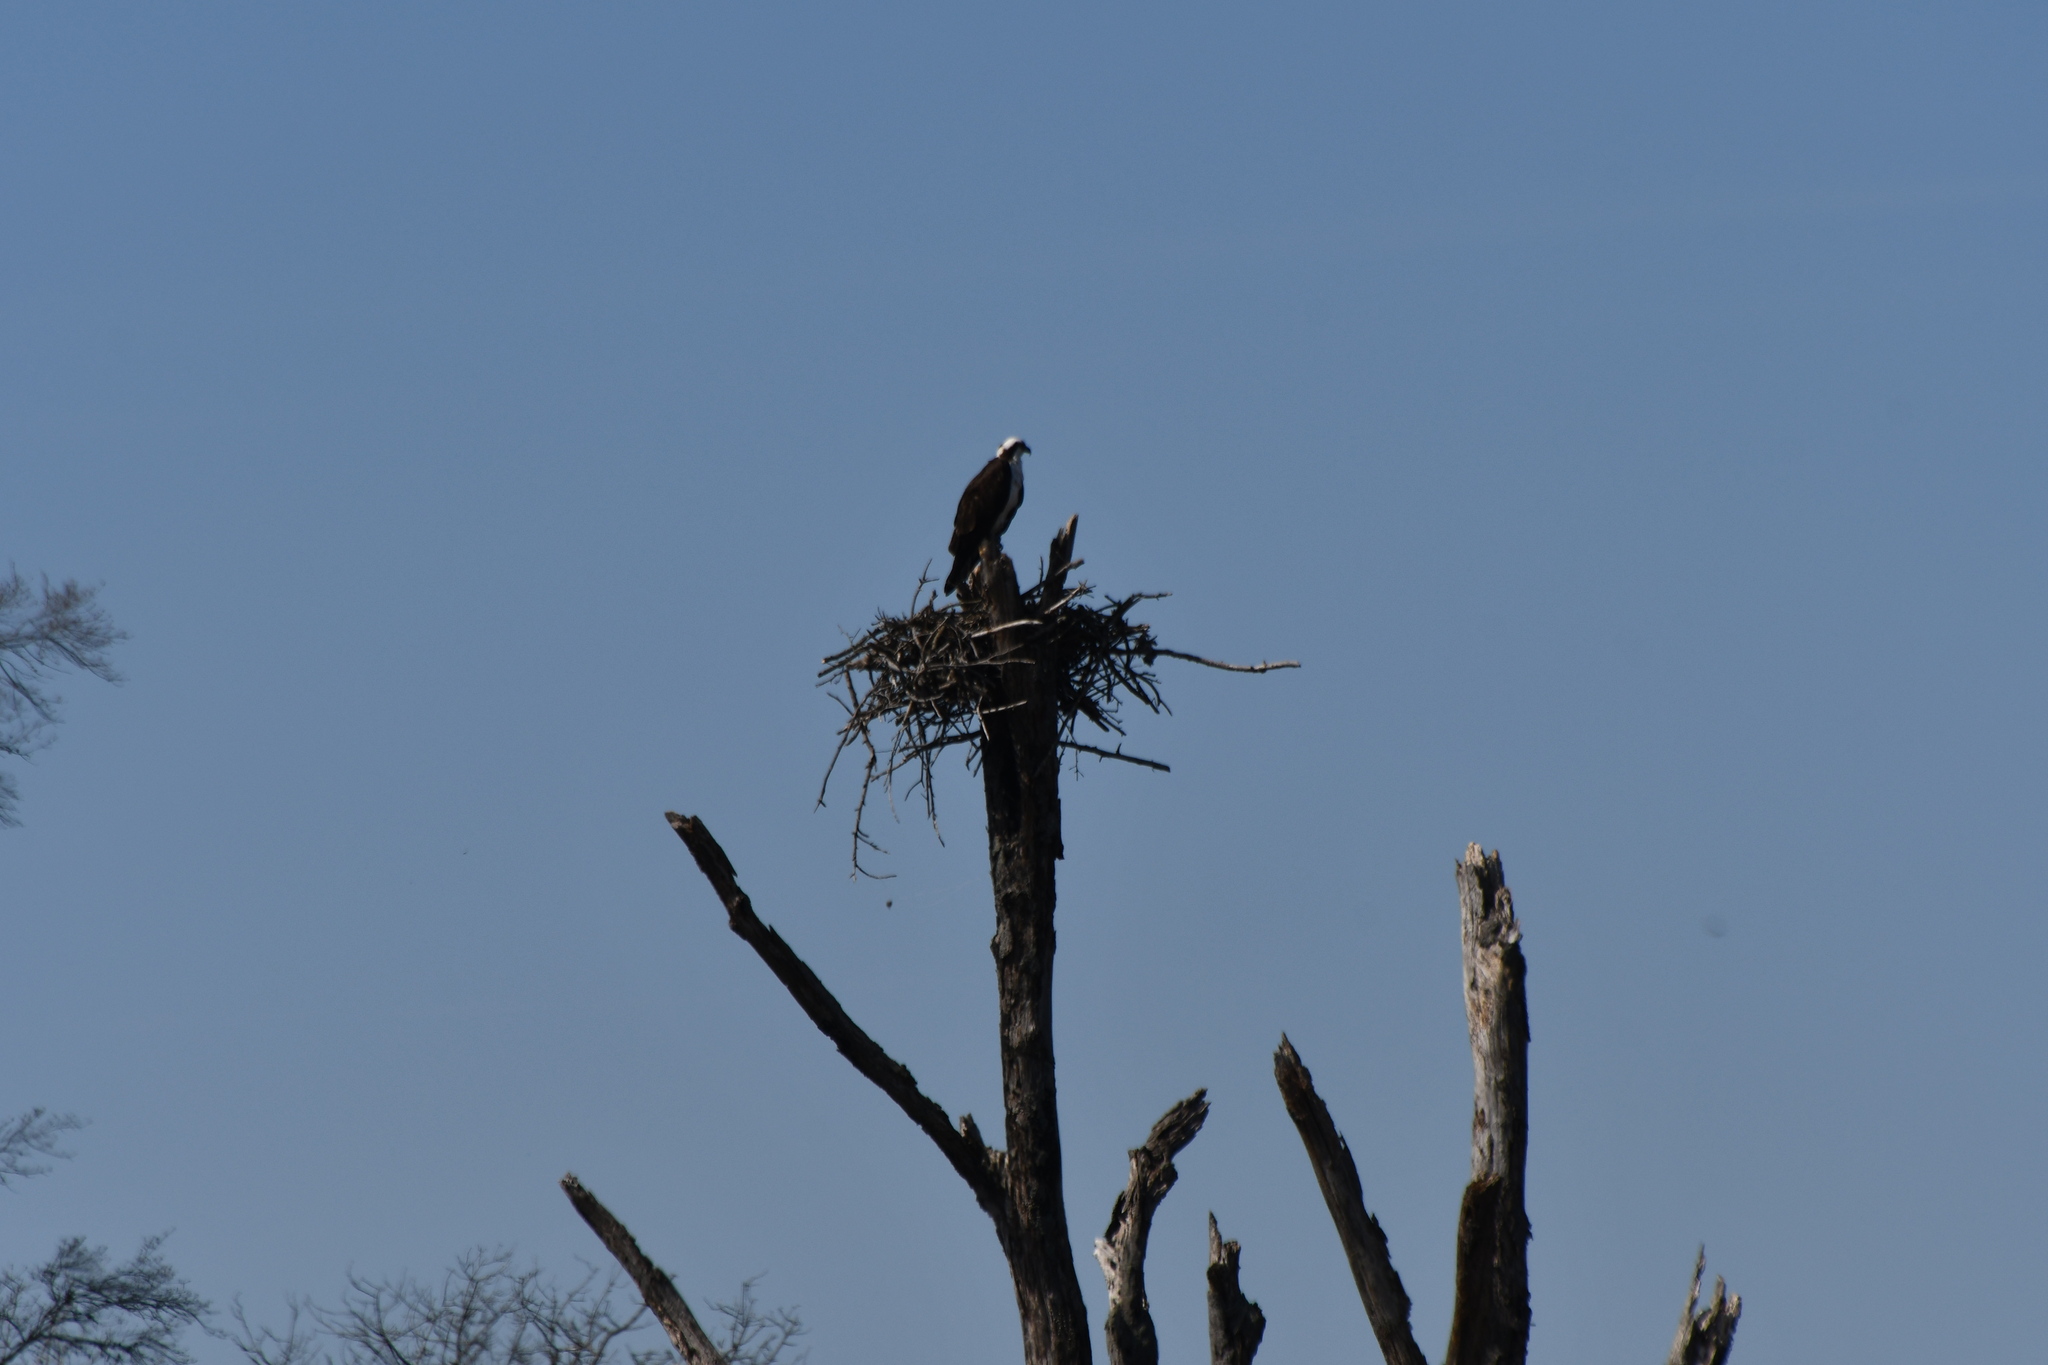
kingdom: Animalia
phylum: Chordata
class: Aves
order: Accipitriformes
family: Pandionidae
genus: Pandion
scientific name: Pandion haliaetus
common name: Osprey
